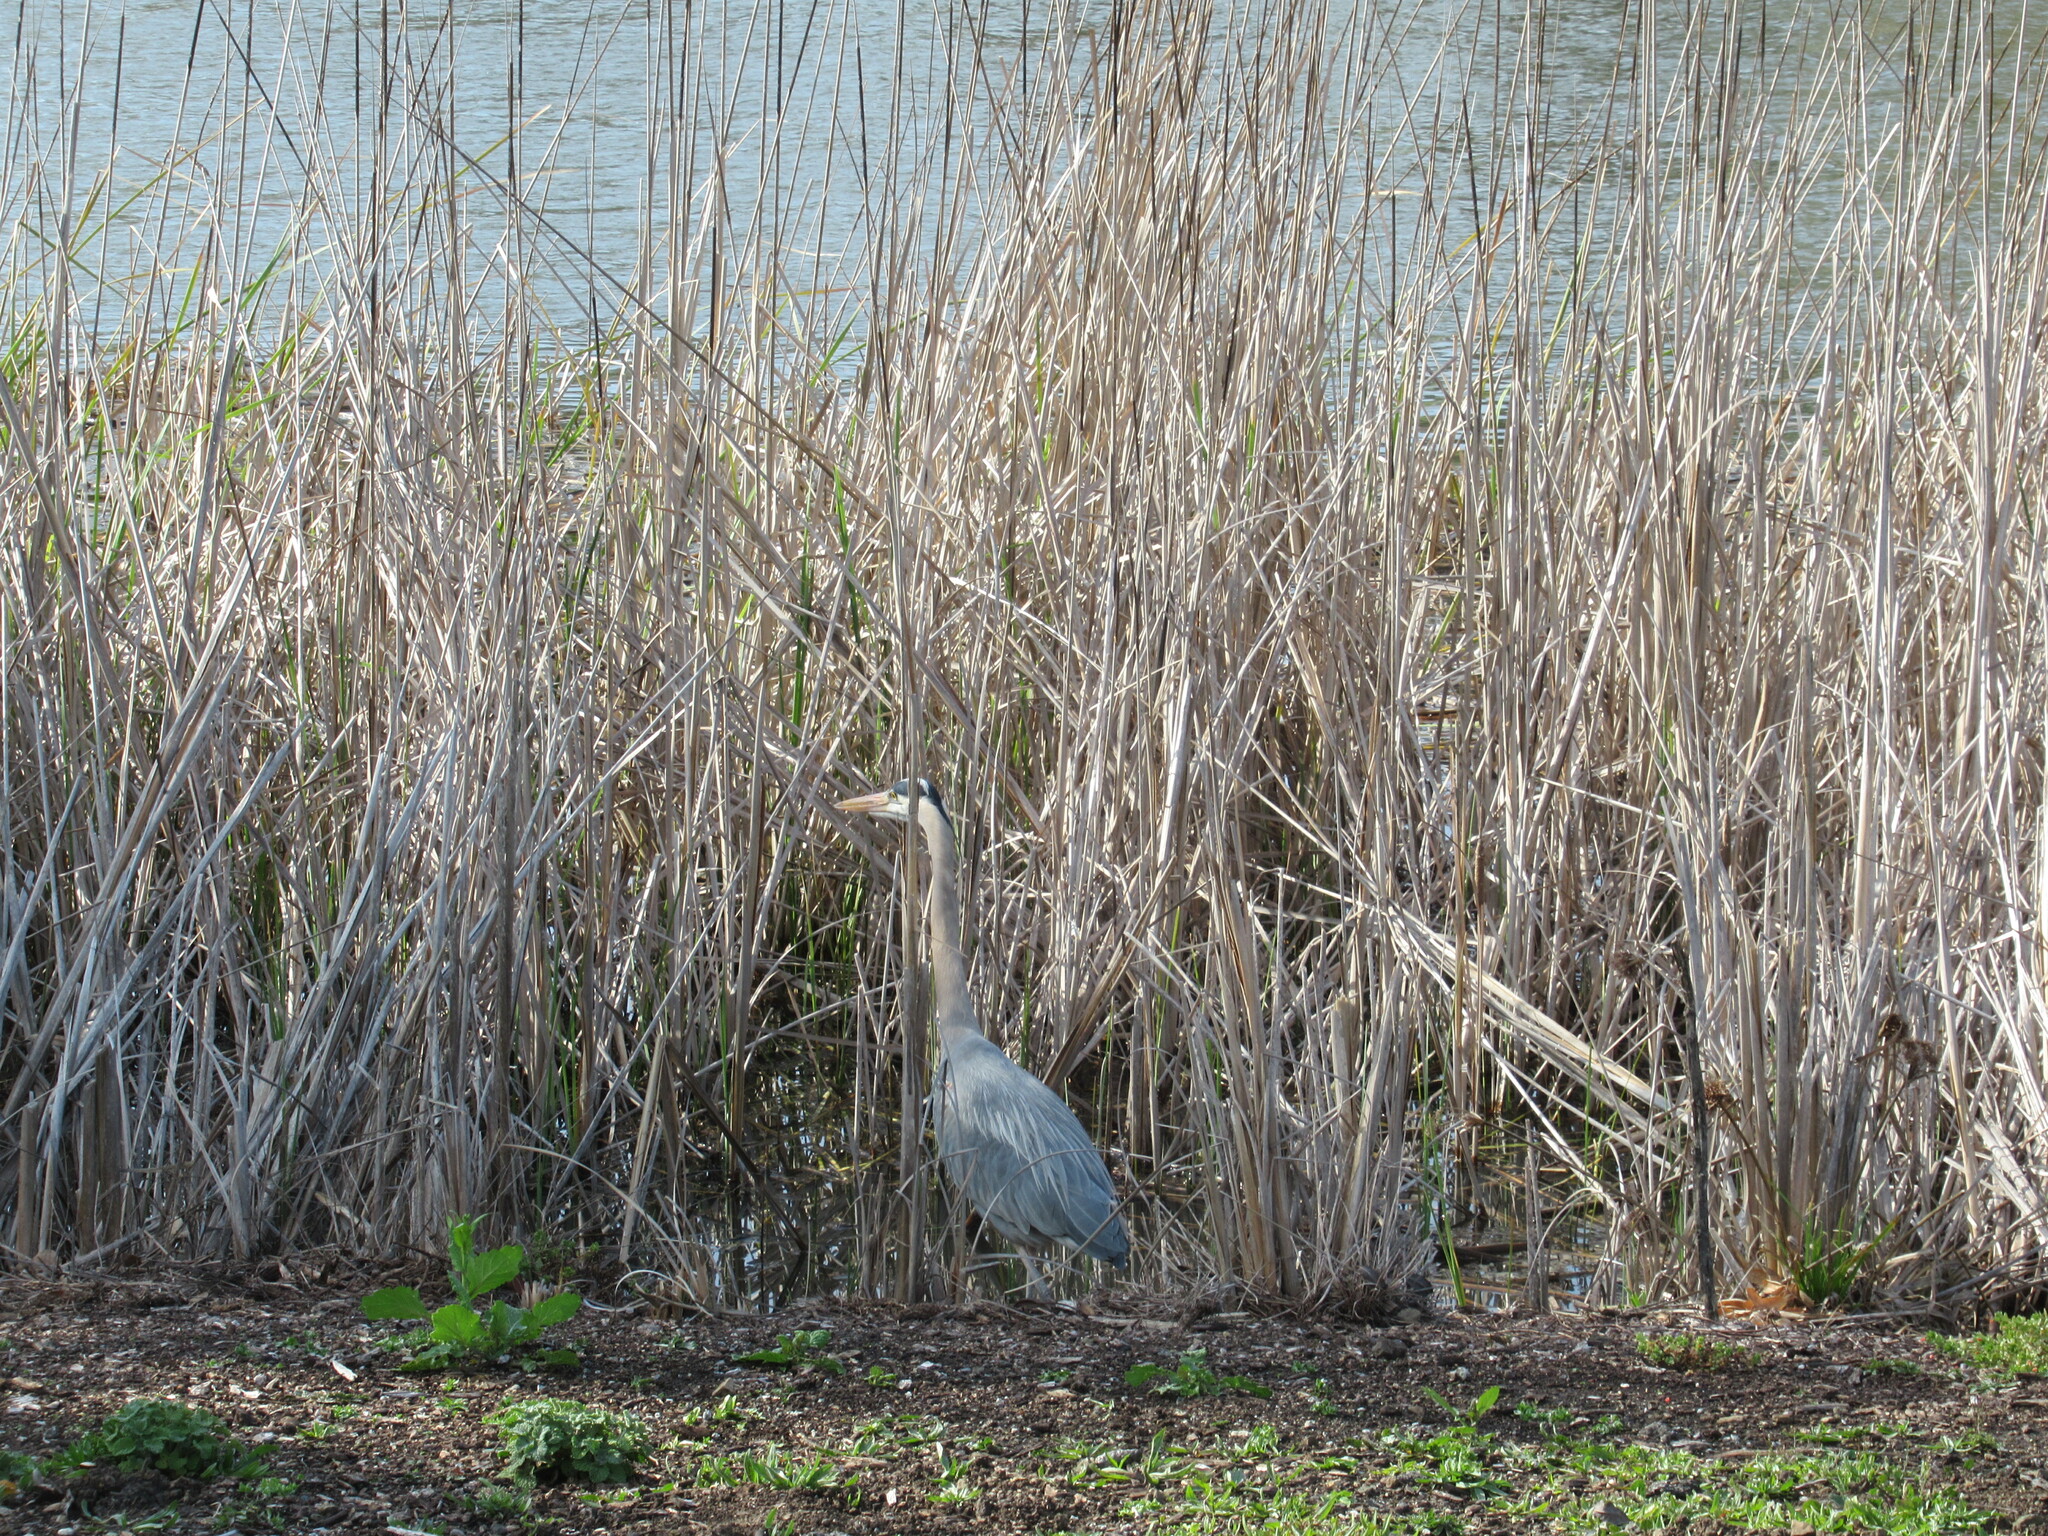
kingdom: Animalia
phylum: Chordata
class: Aves
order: Pelecaniformes
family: Ardeidae
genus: Ardea
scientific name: Ardea herodias
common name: Great blue heron
